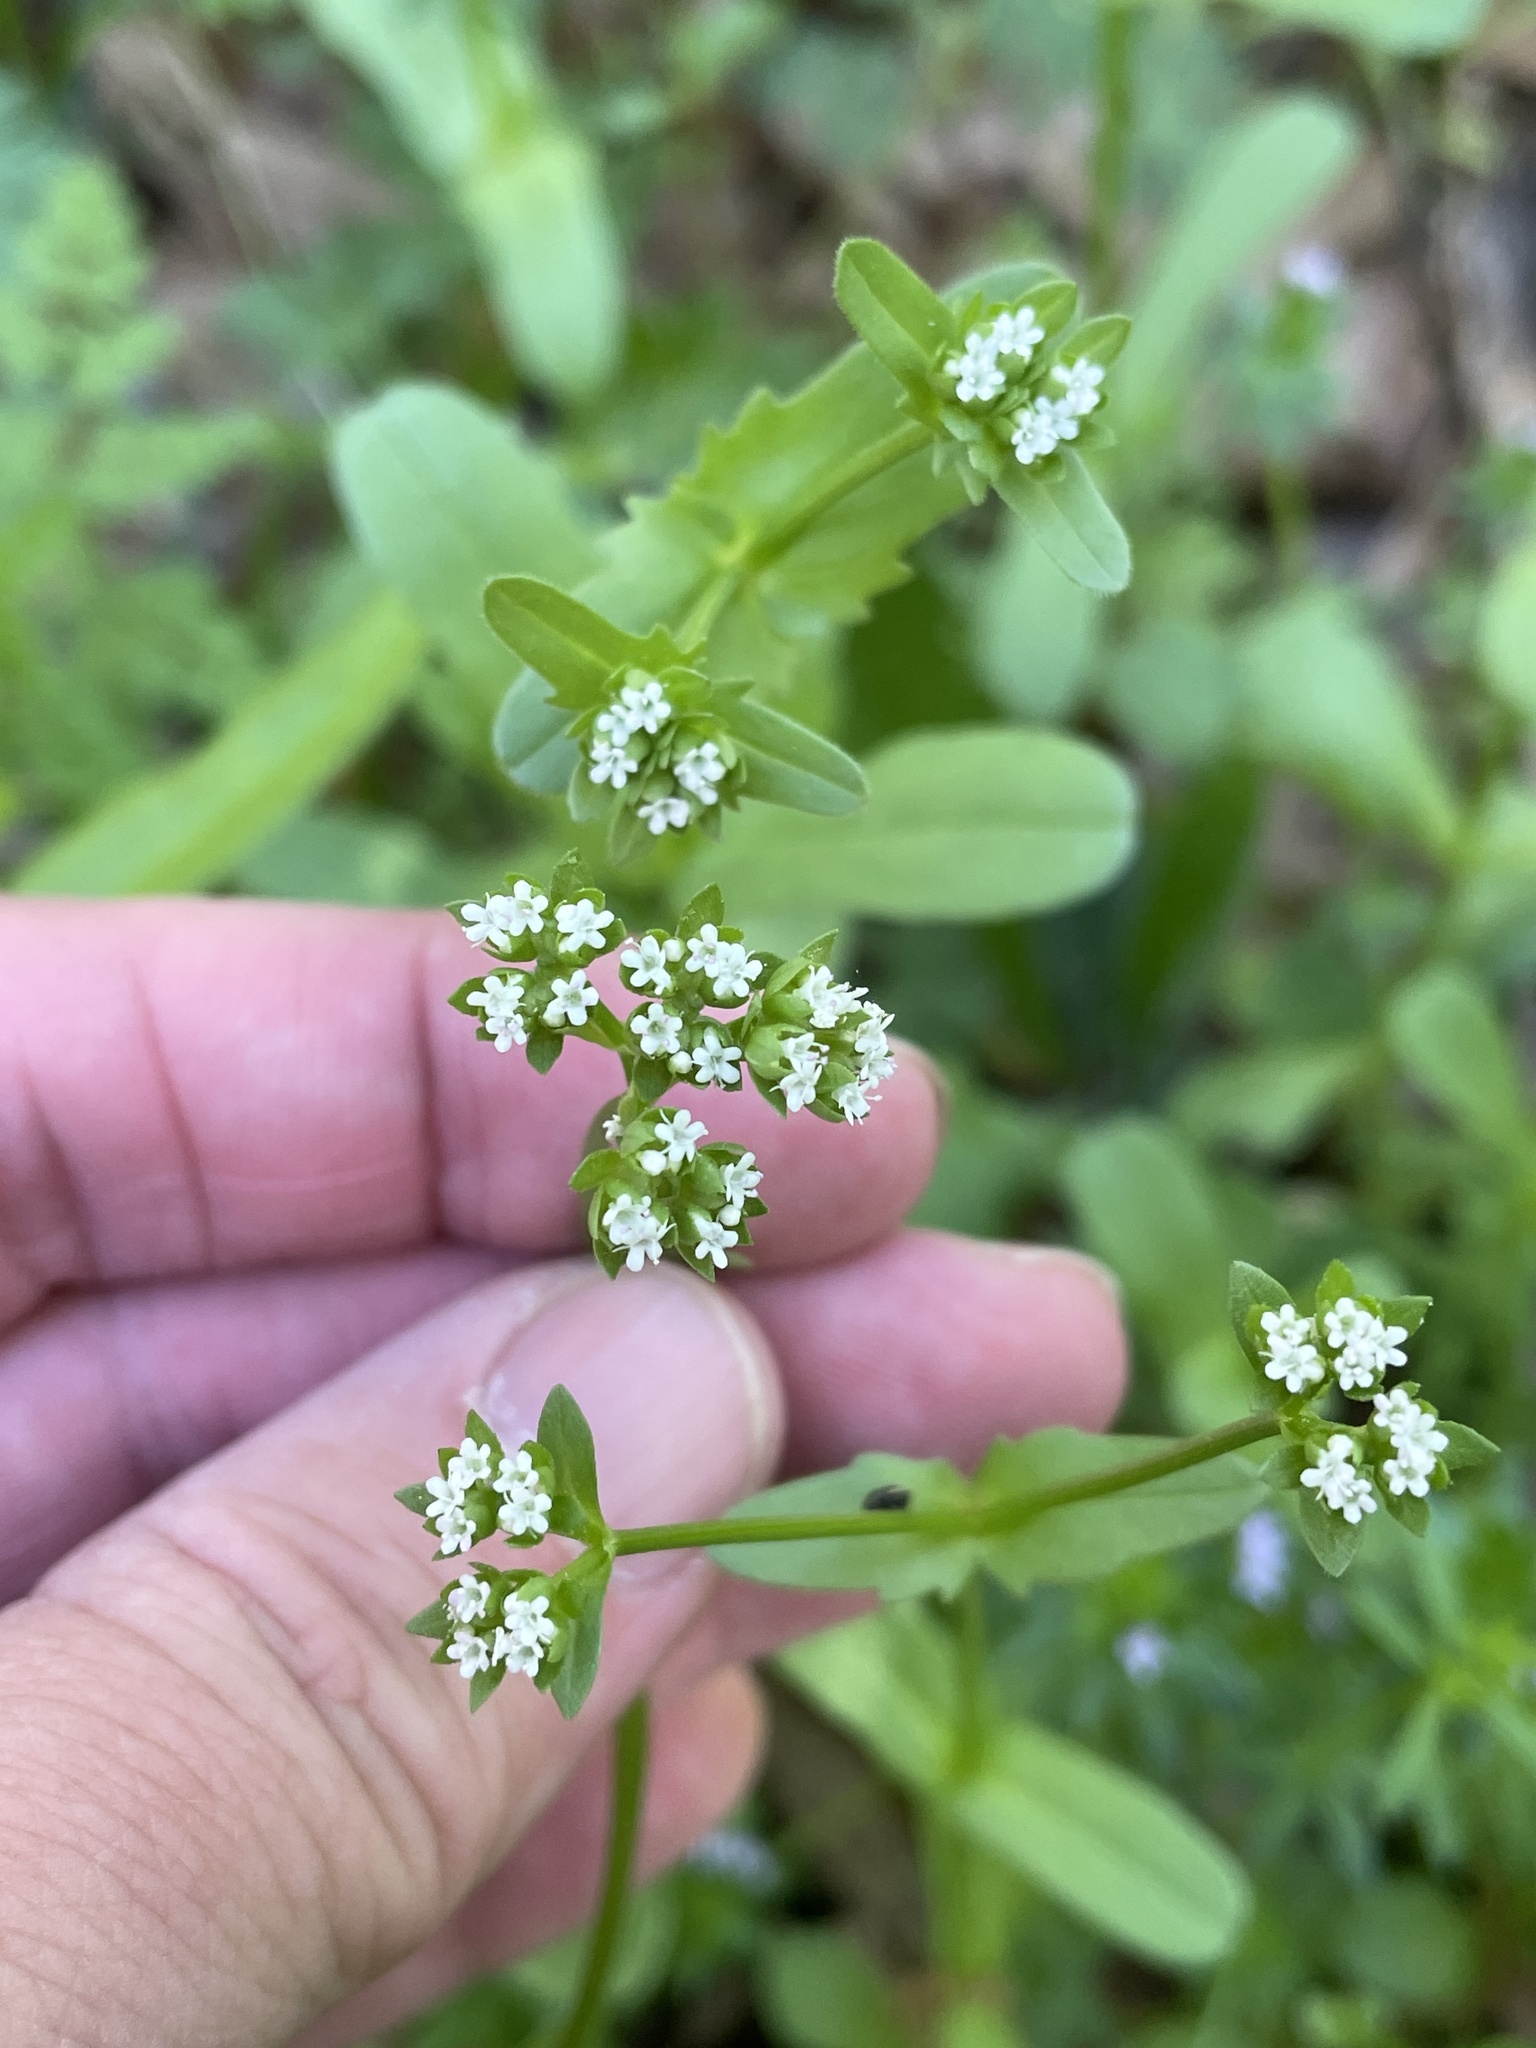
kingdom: Plantae
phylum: Tracheophyta
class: Magnoliopsida
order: Dipsacales
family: Caprifoliaceae
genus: Valerianella
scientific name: Valerianella radiata
